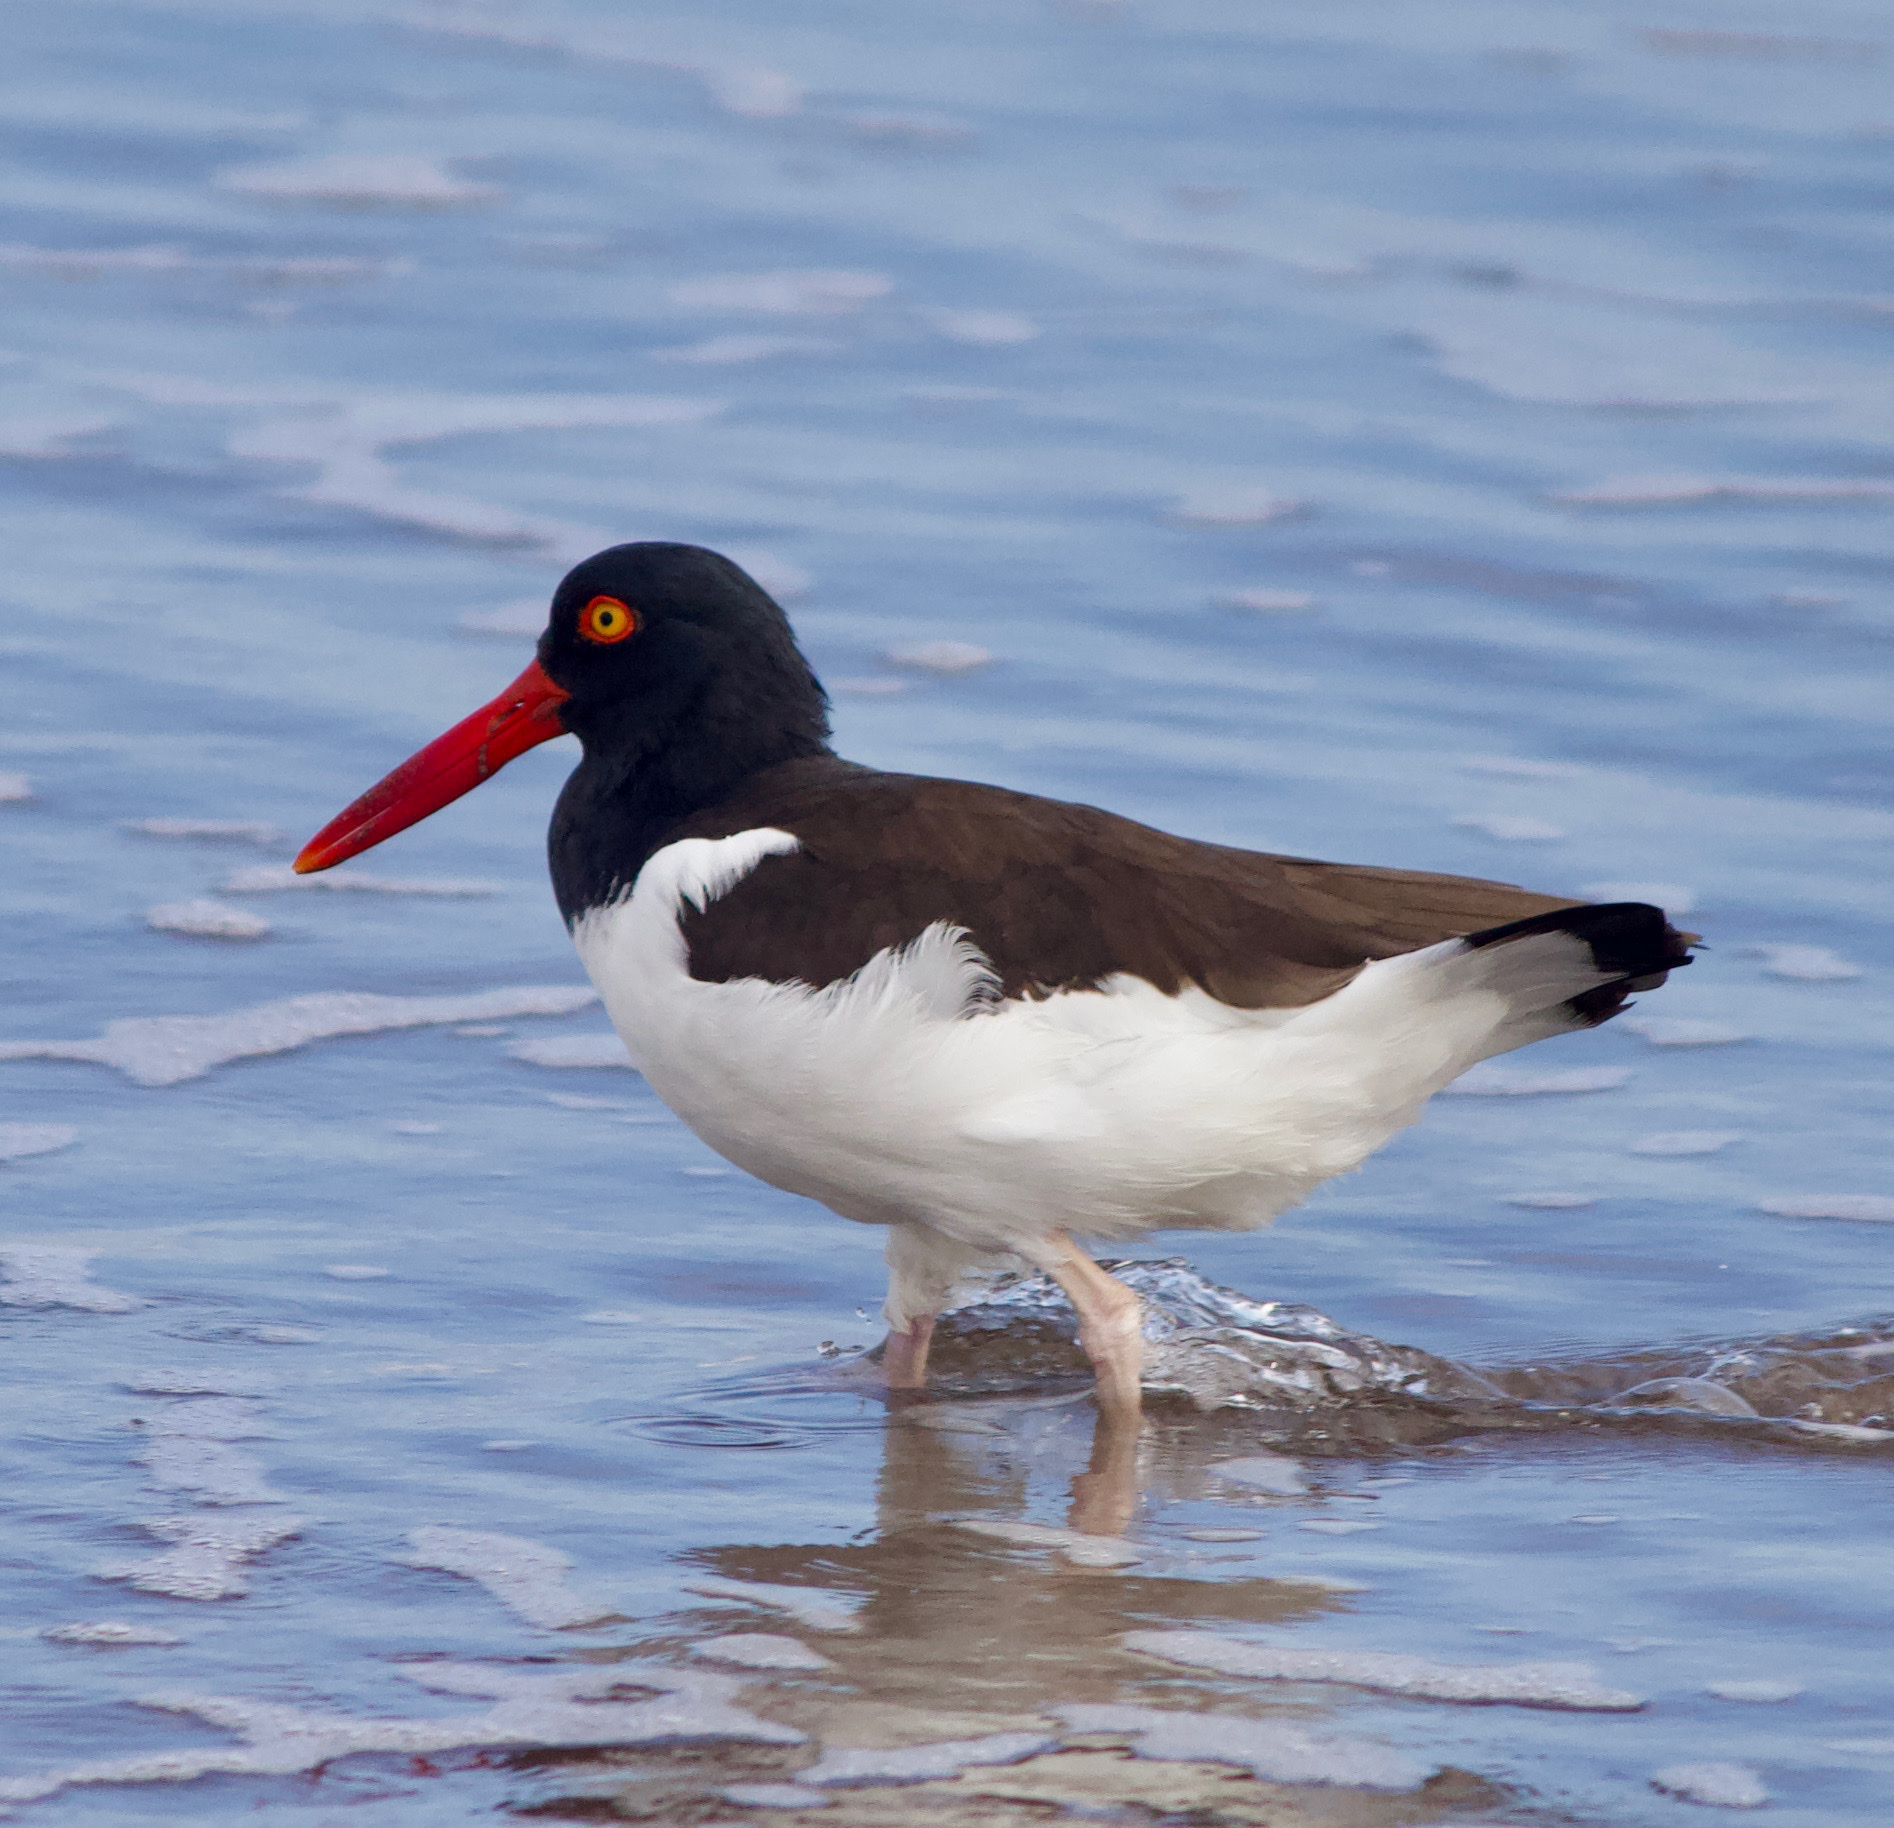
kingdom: Animalia
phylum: Chordata
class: Aves
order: Charadriiformes
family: Haematopodidae
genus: Haematopus
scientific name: Haematopus palliatus
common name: American oystercatcher
